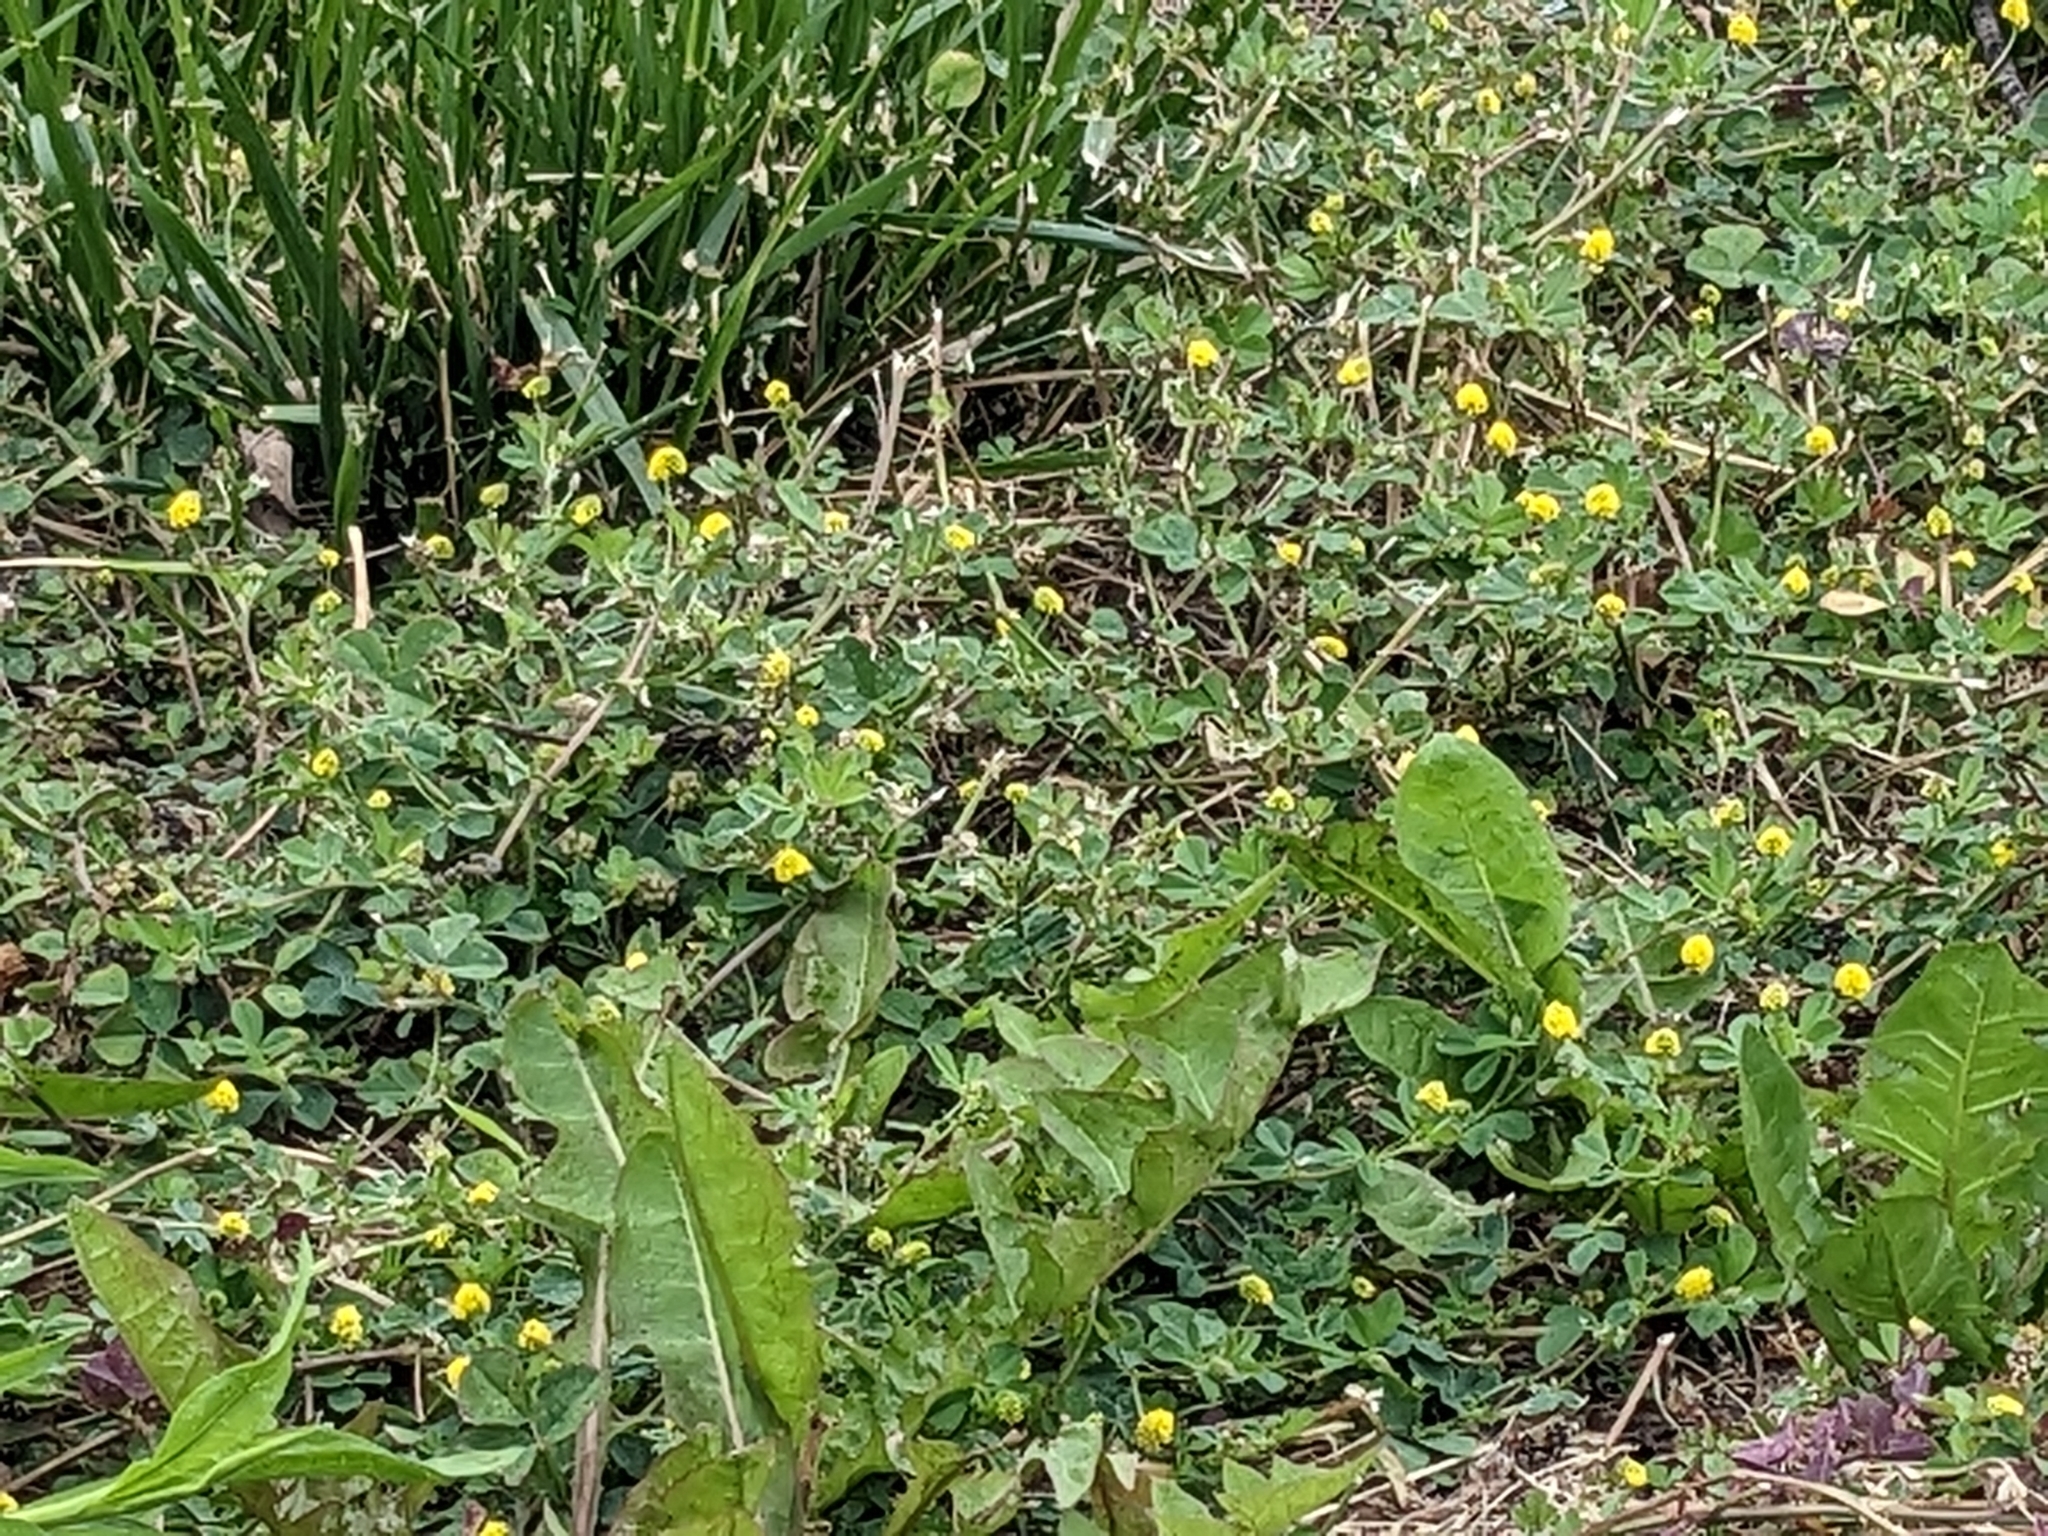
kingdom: Plantae
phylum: Tracheophyta
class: Magnoliopsida
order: Fabales
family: Fabaceae
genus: Medicago
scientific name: Medicago lupulina
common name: Black medick
